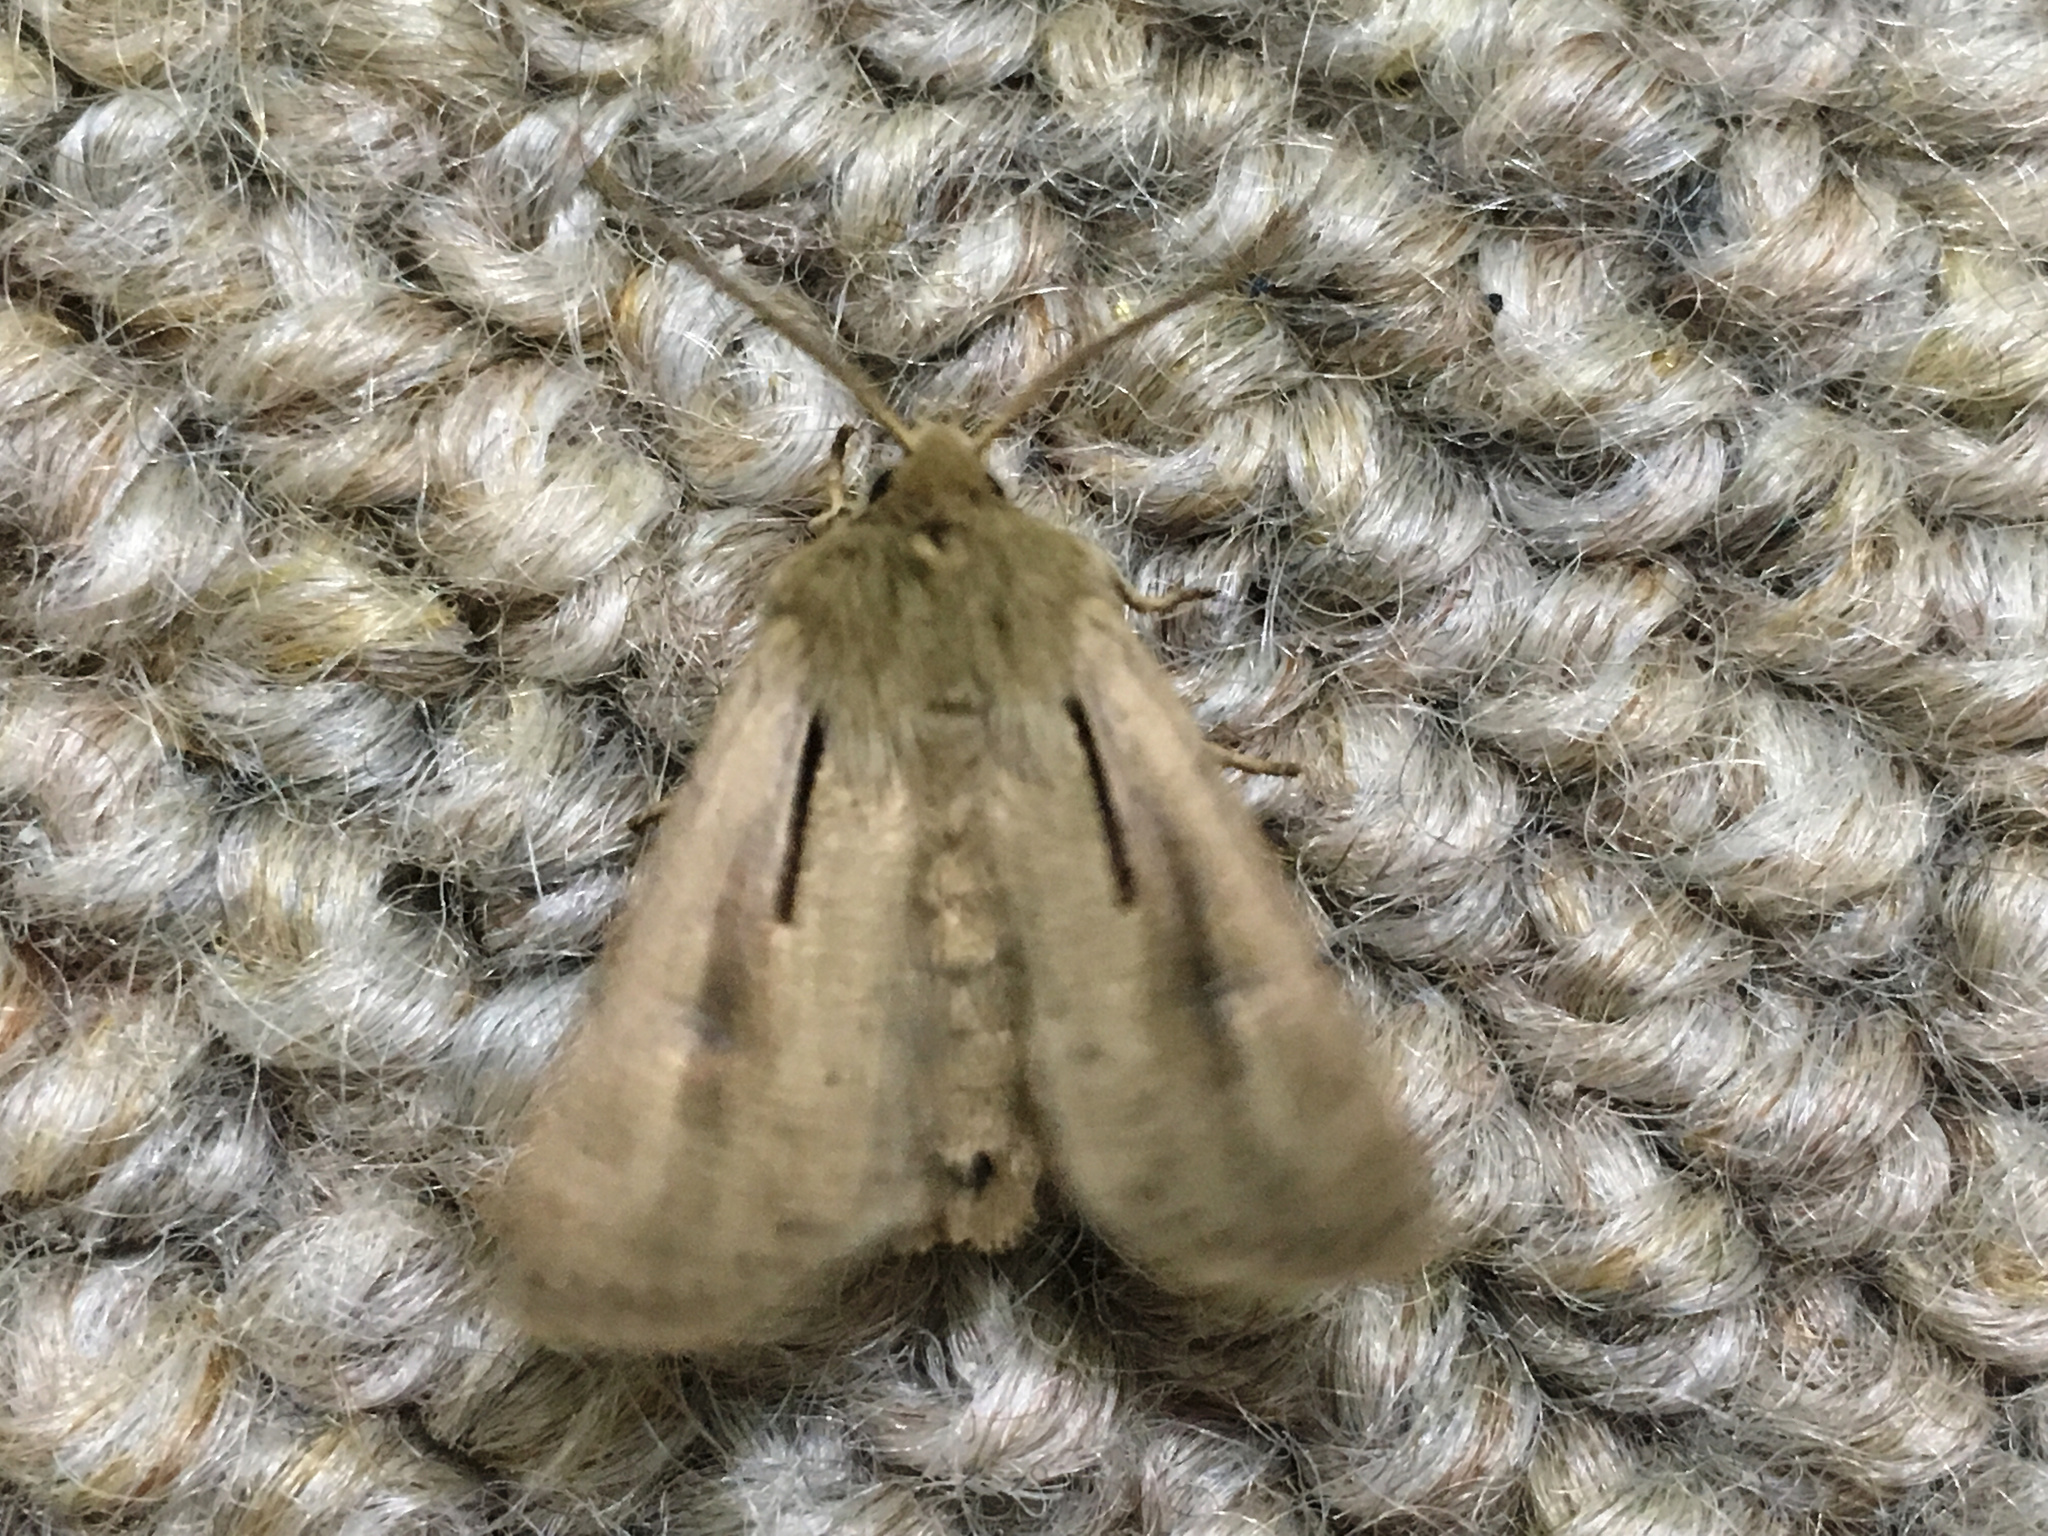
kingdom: Animalia
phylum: Arthropoda
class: Insecta
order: Lepidoptera
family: Noctuidae
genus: Ichneutica
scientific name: Ichneutica propria
